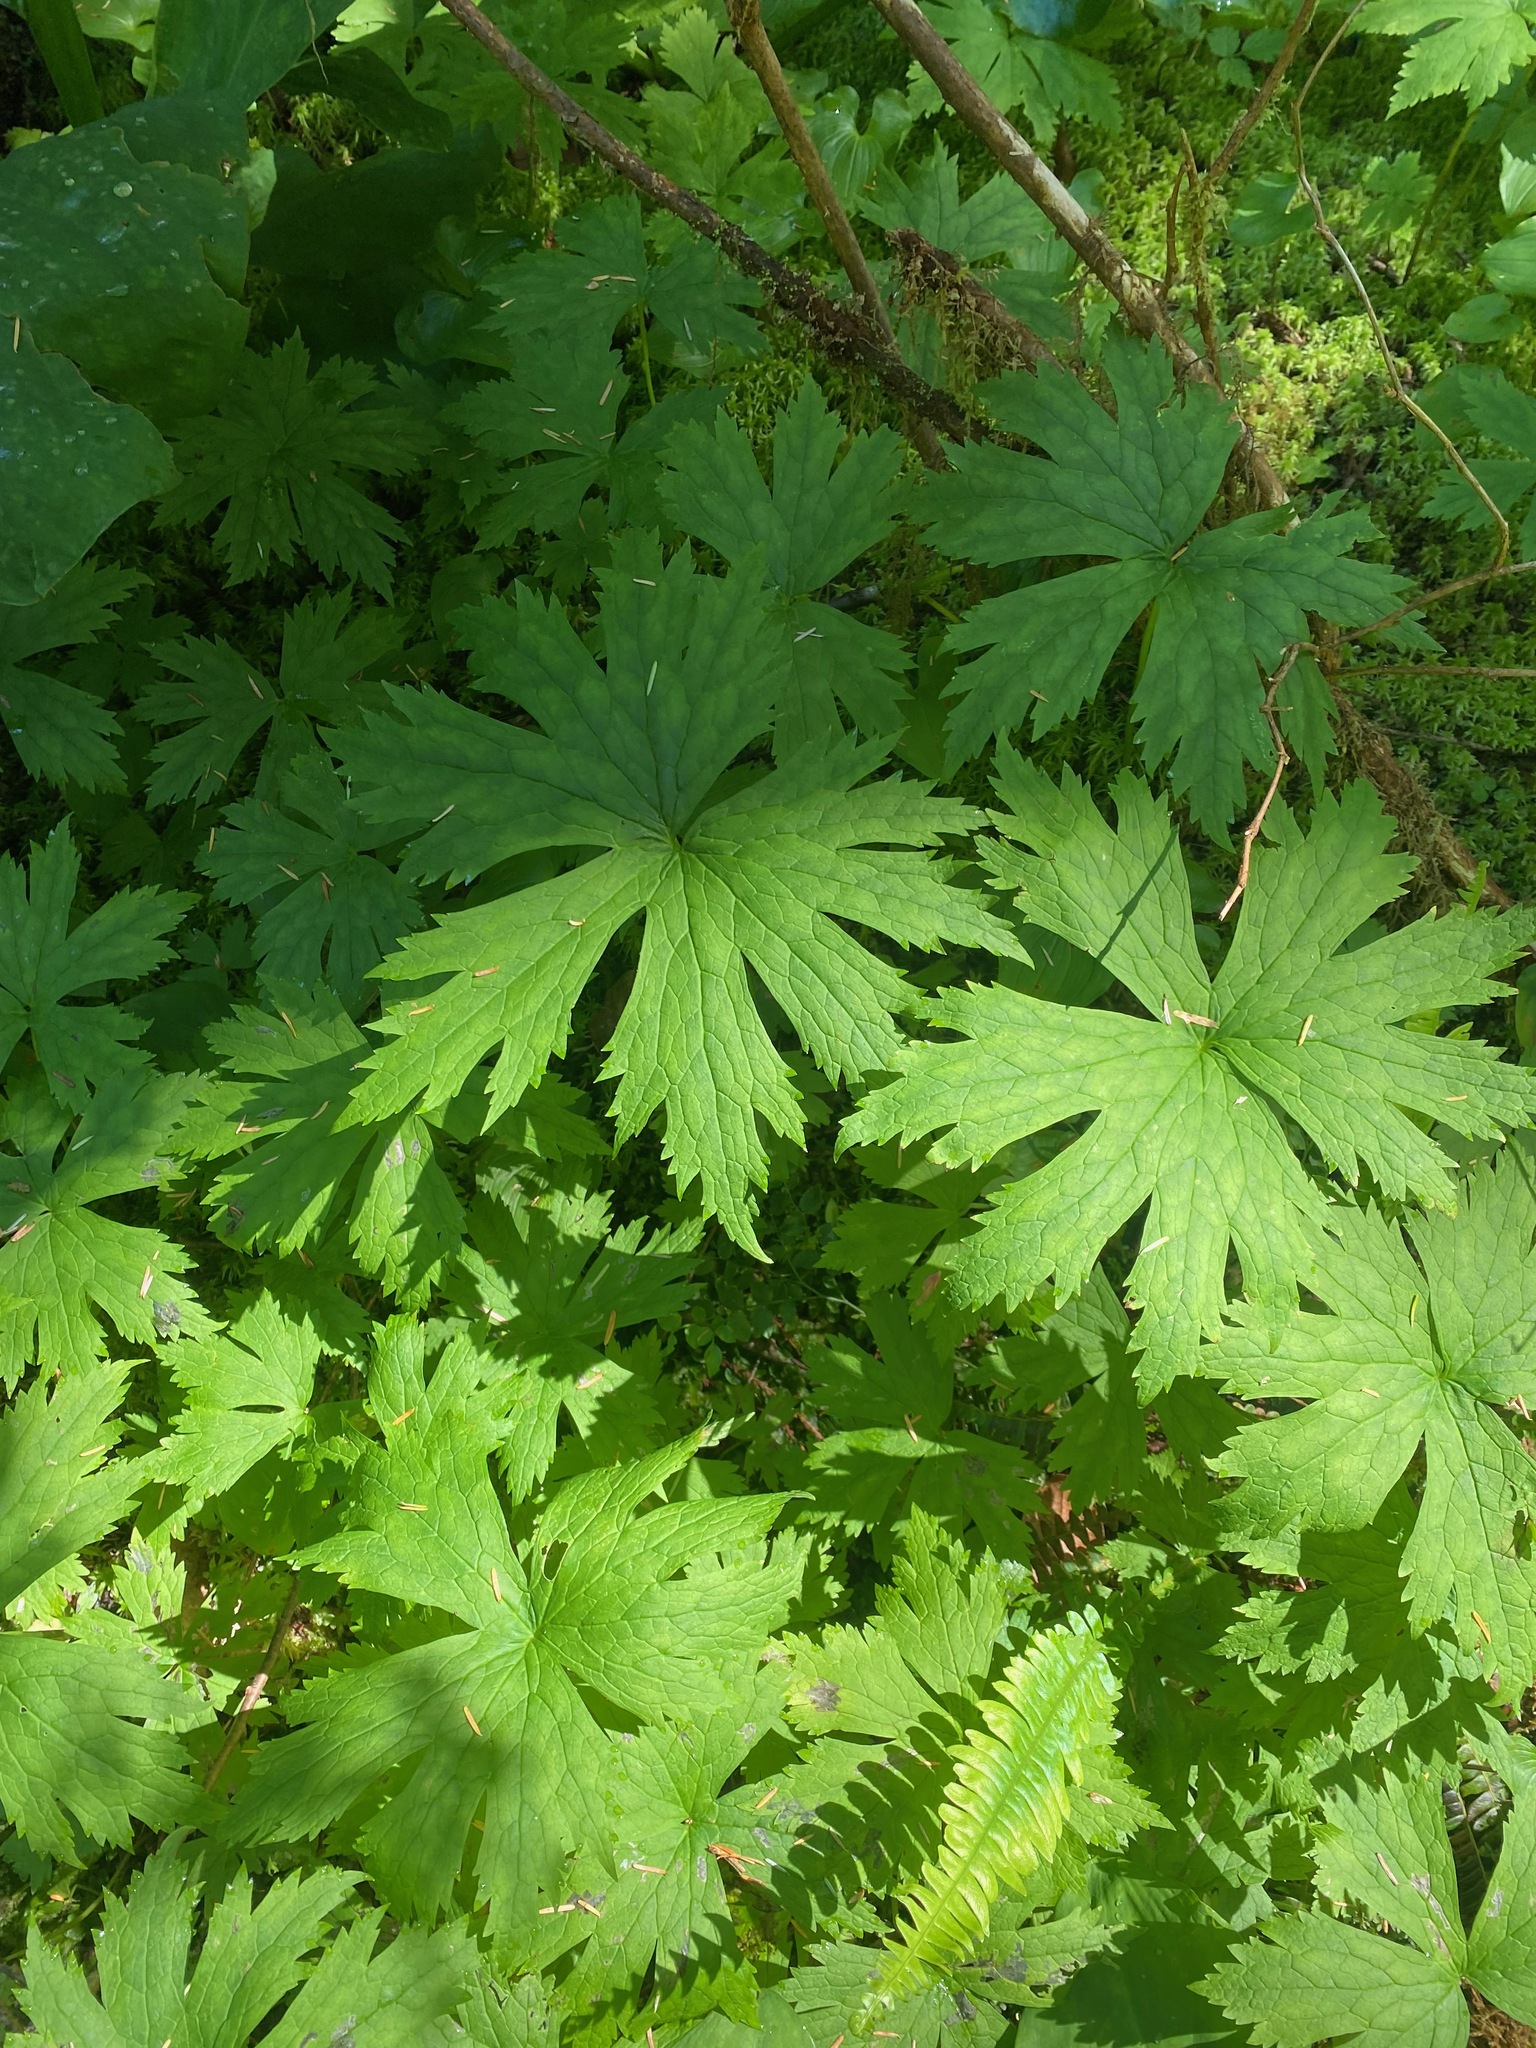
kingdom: Plantae
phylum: Tracheophyta
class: Magnoliopsida
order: Ranunculales
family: Ranunculaceae
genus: Trautvetteria
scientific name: Trautvetteria carolinensis
